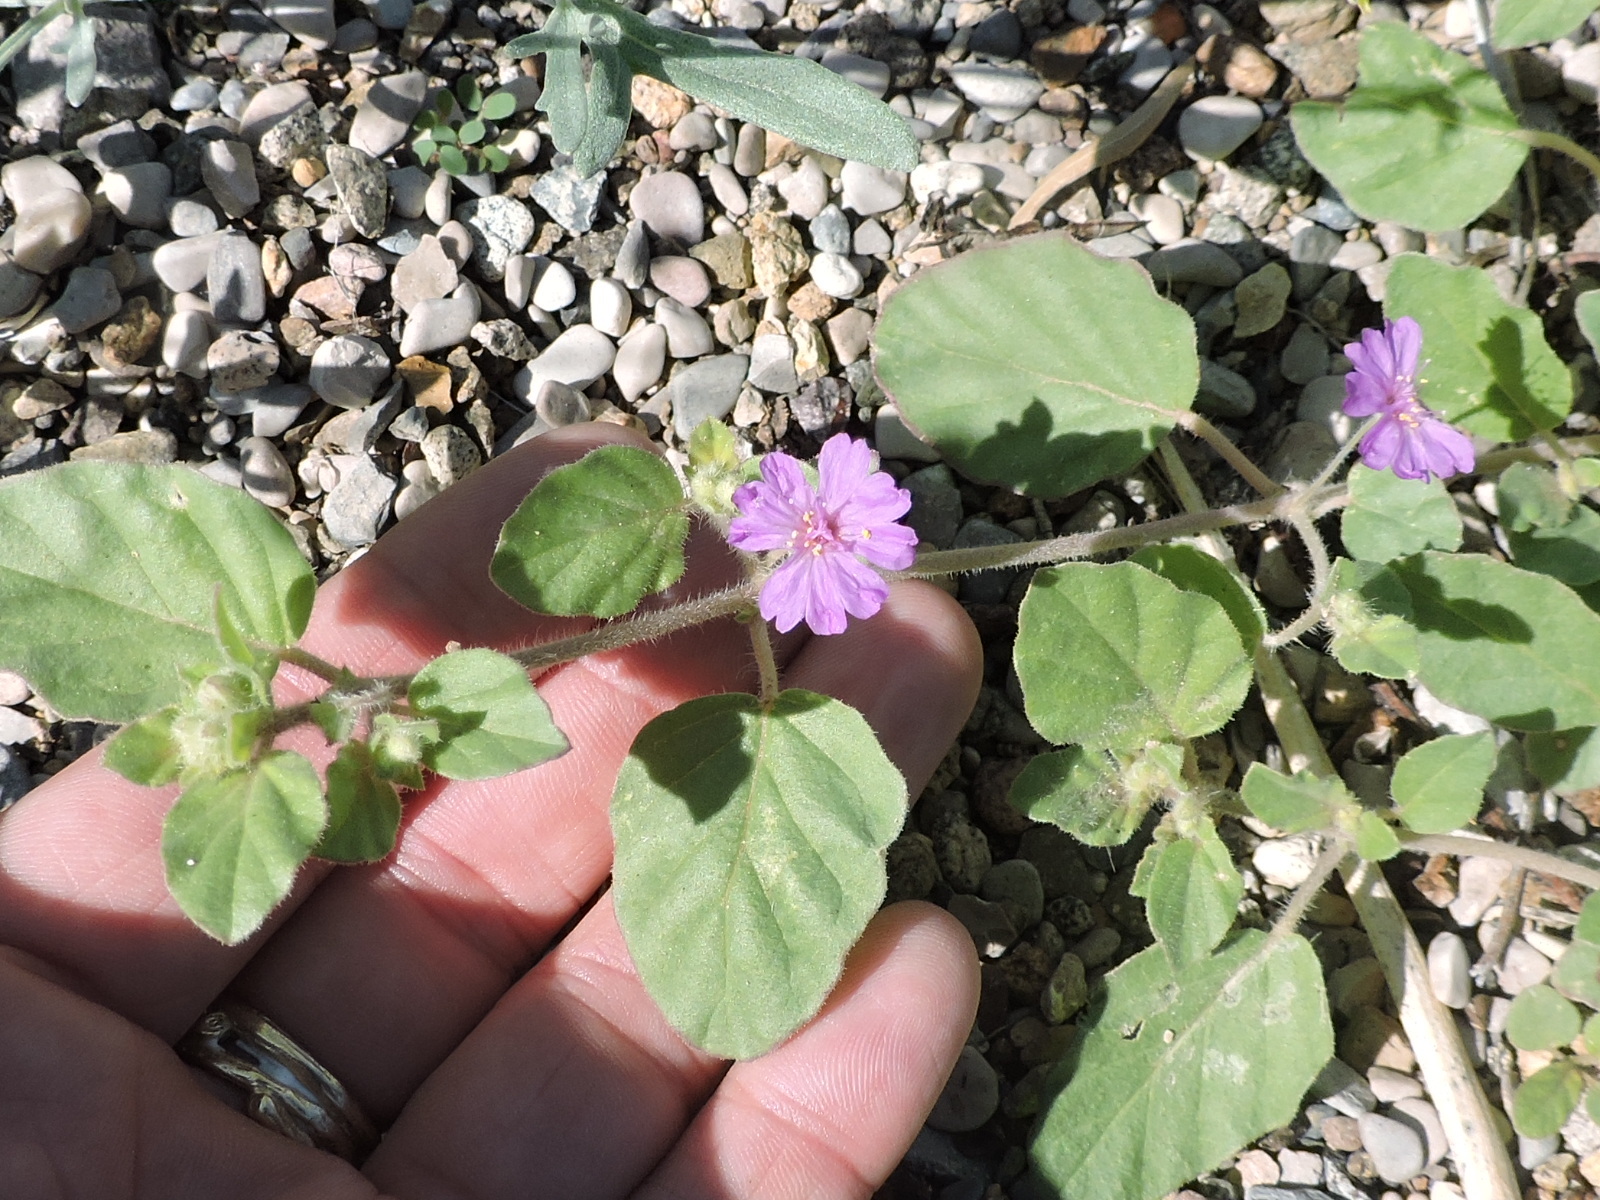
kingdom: Plantae
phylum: Tracheophyta
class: Magnoliopsida
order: Caryophyllales
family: Nyctaginaceae
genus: Allionia
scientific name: Allionia incarnata
